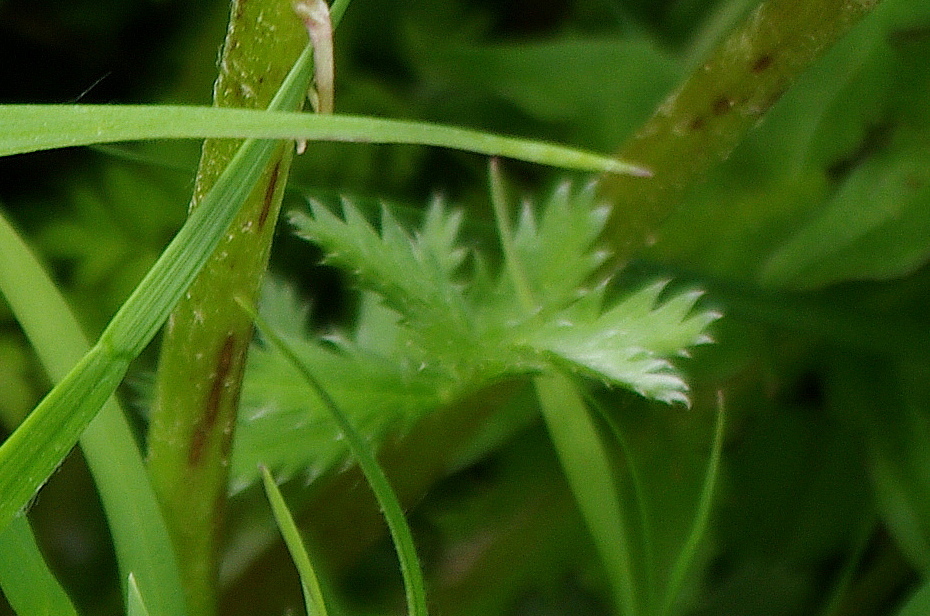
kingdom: Plantae
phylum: Tracheophyta
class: Magnoliopsida
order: Rosales
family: Rosaceae
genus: Argentina
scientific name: Argentina anserina
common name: Common silverweed
